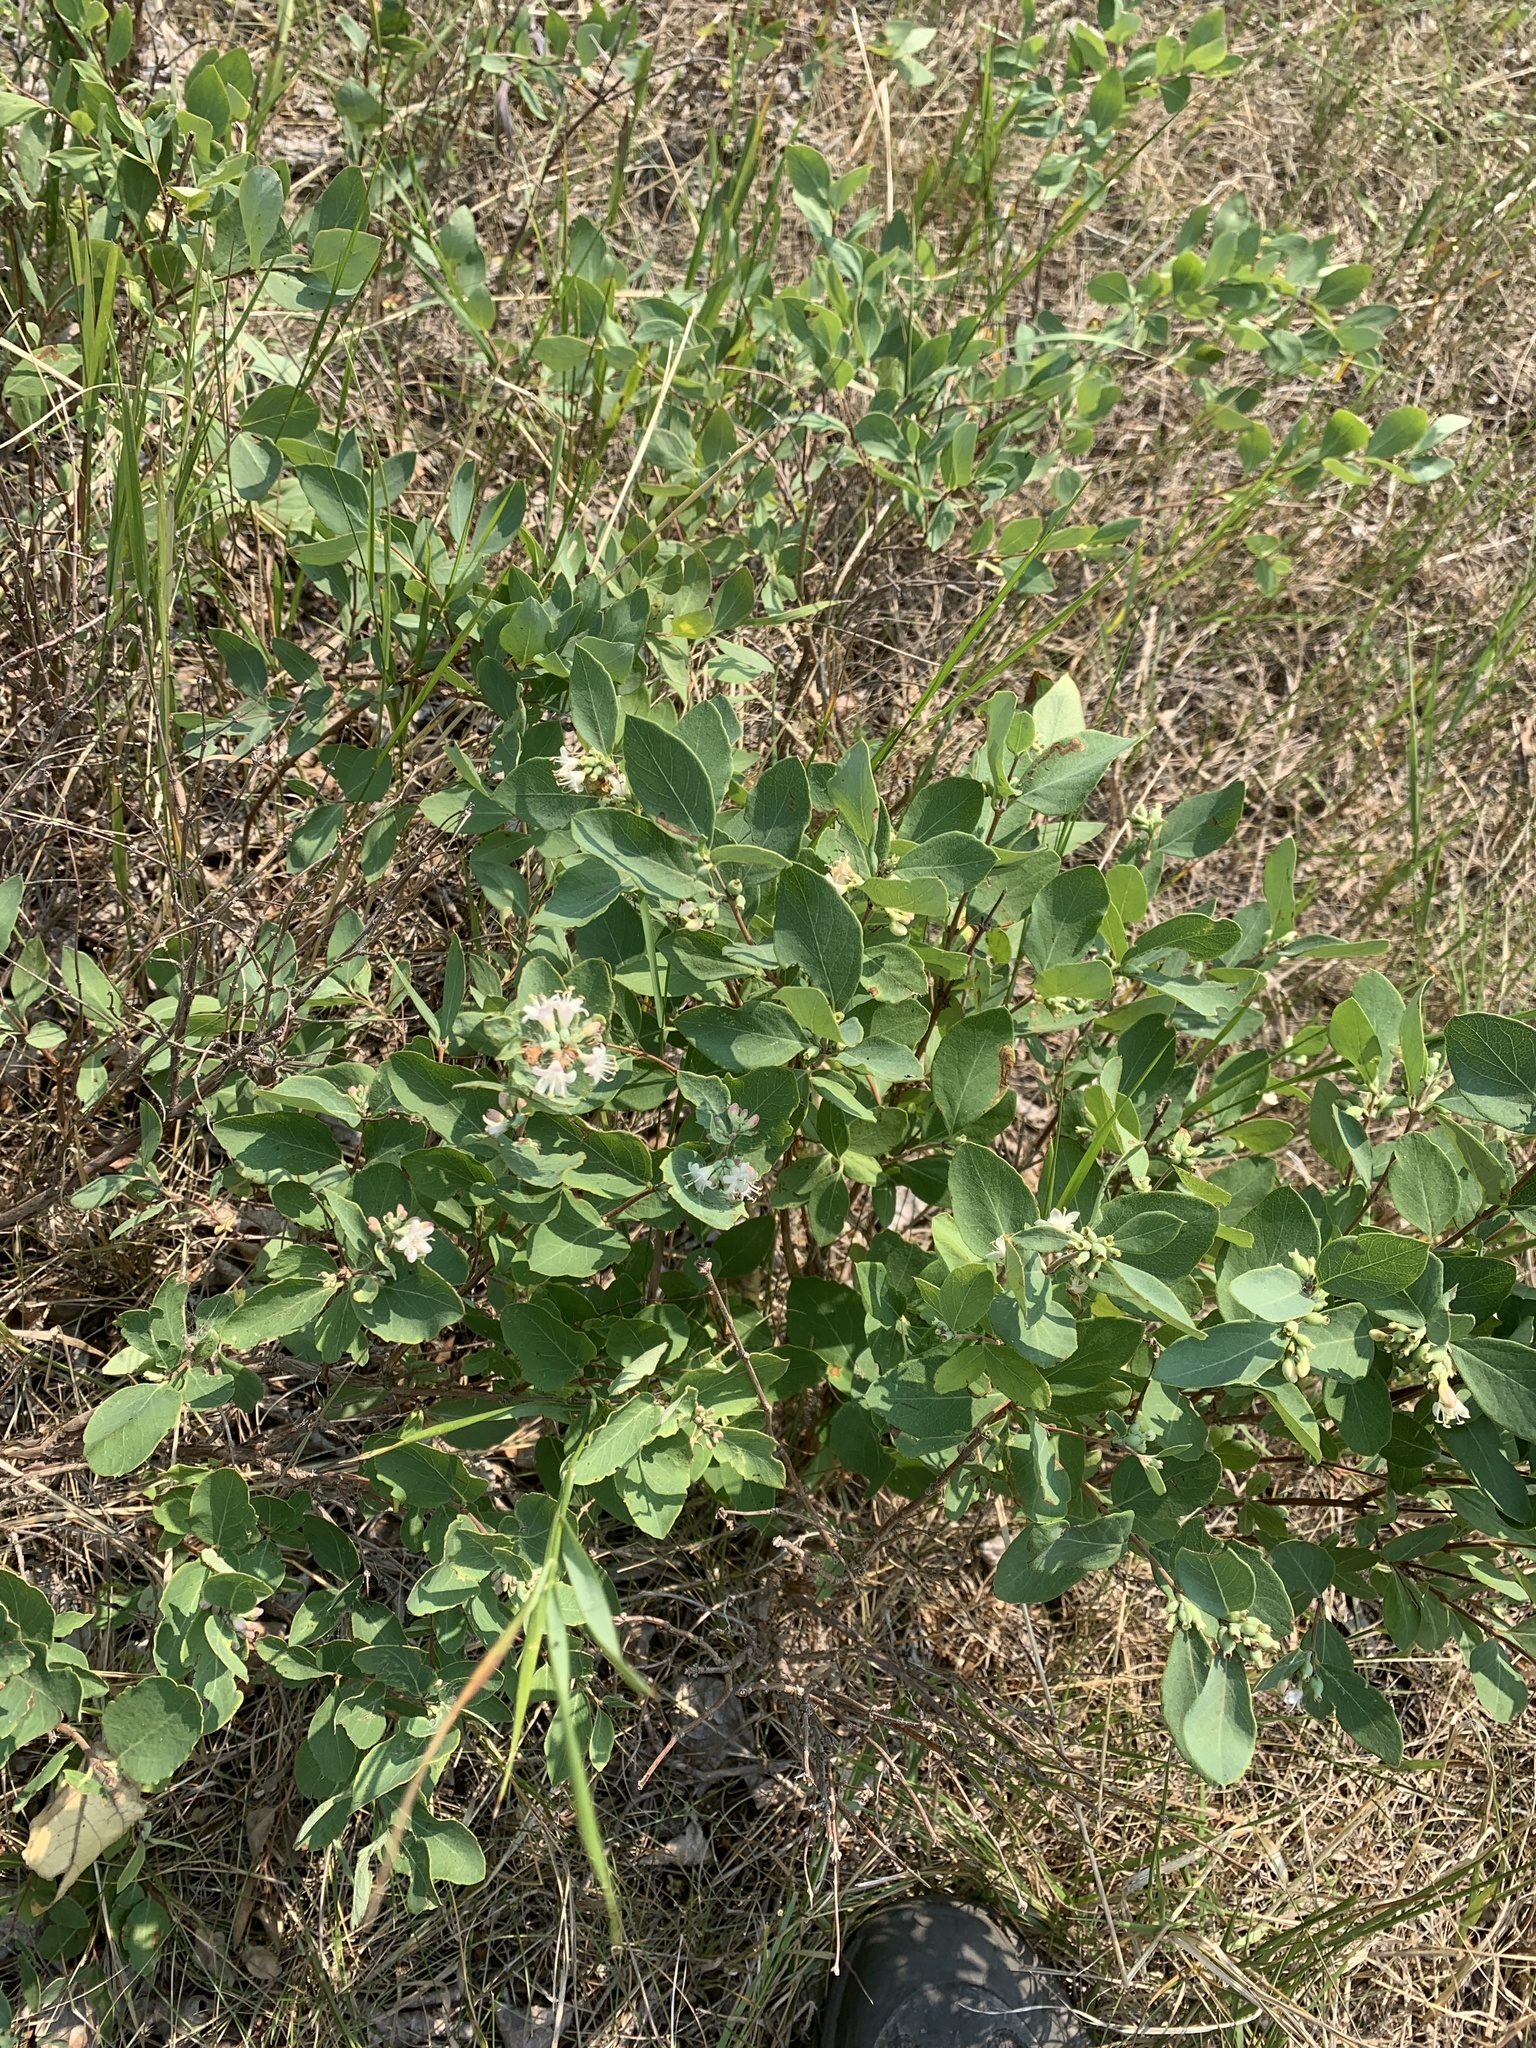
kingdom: Plantae
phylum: Tracheophyta
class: Magnoliopsida
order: Dipsacales
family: Caprifoliaceae
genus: Symphoricarpos
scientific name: Symphoricarpos occidentalis
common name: Wolfberry
